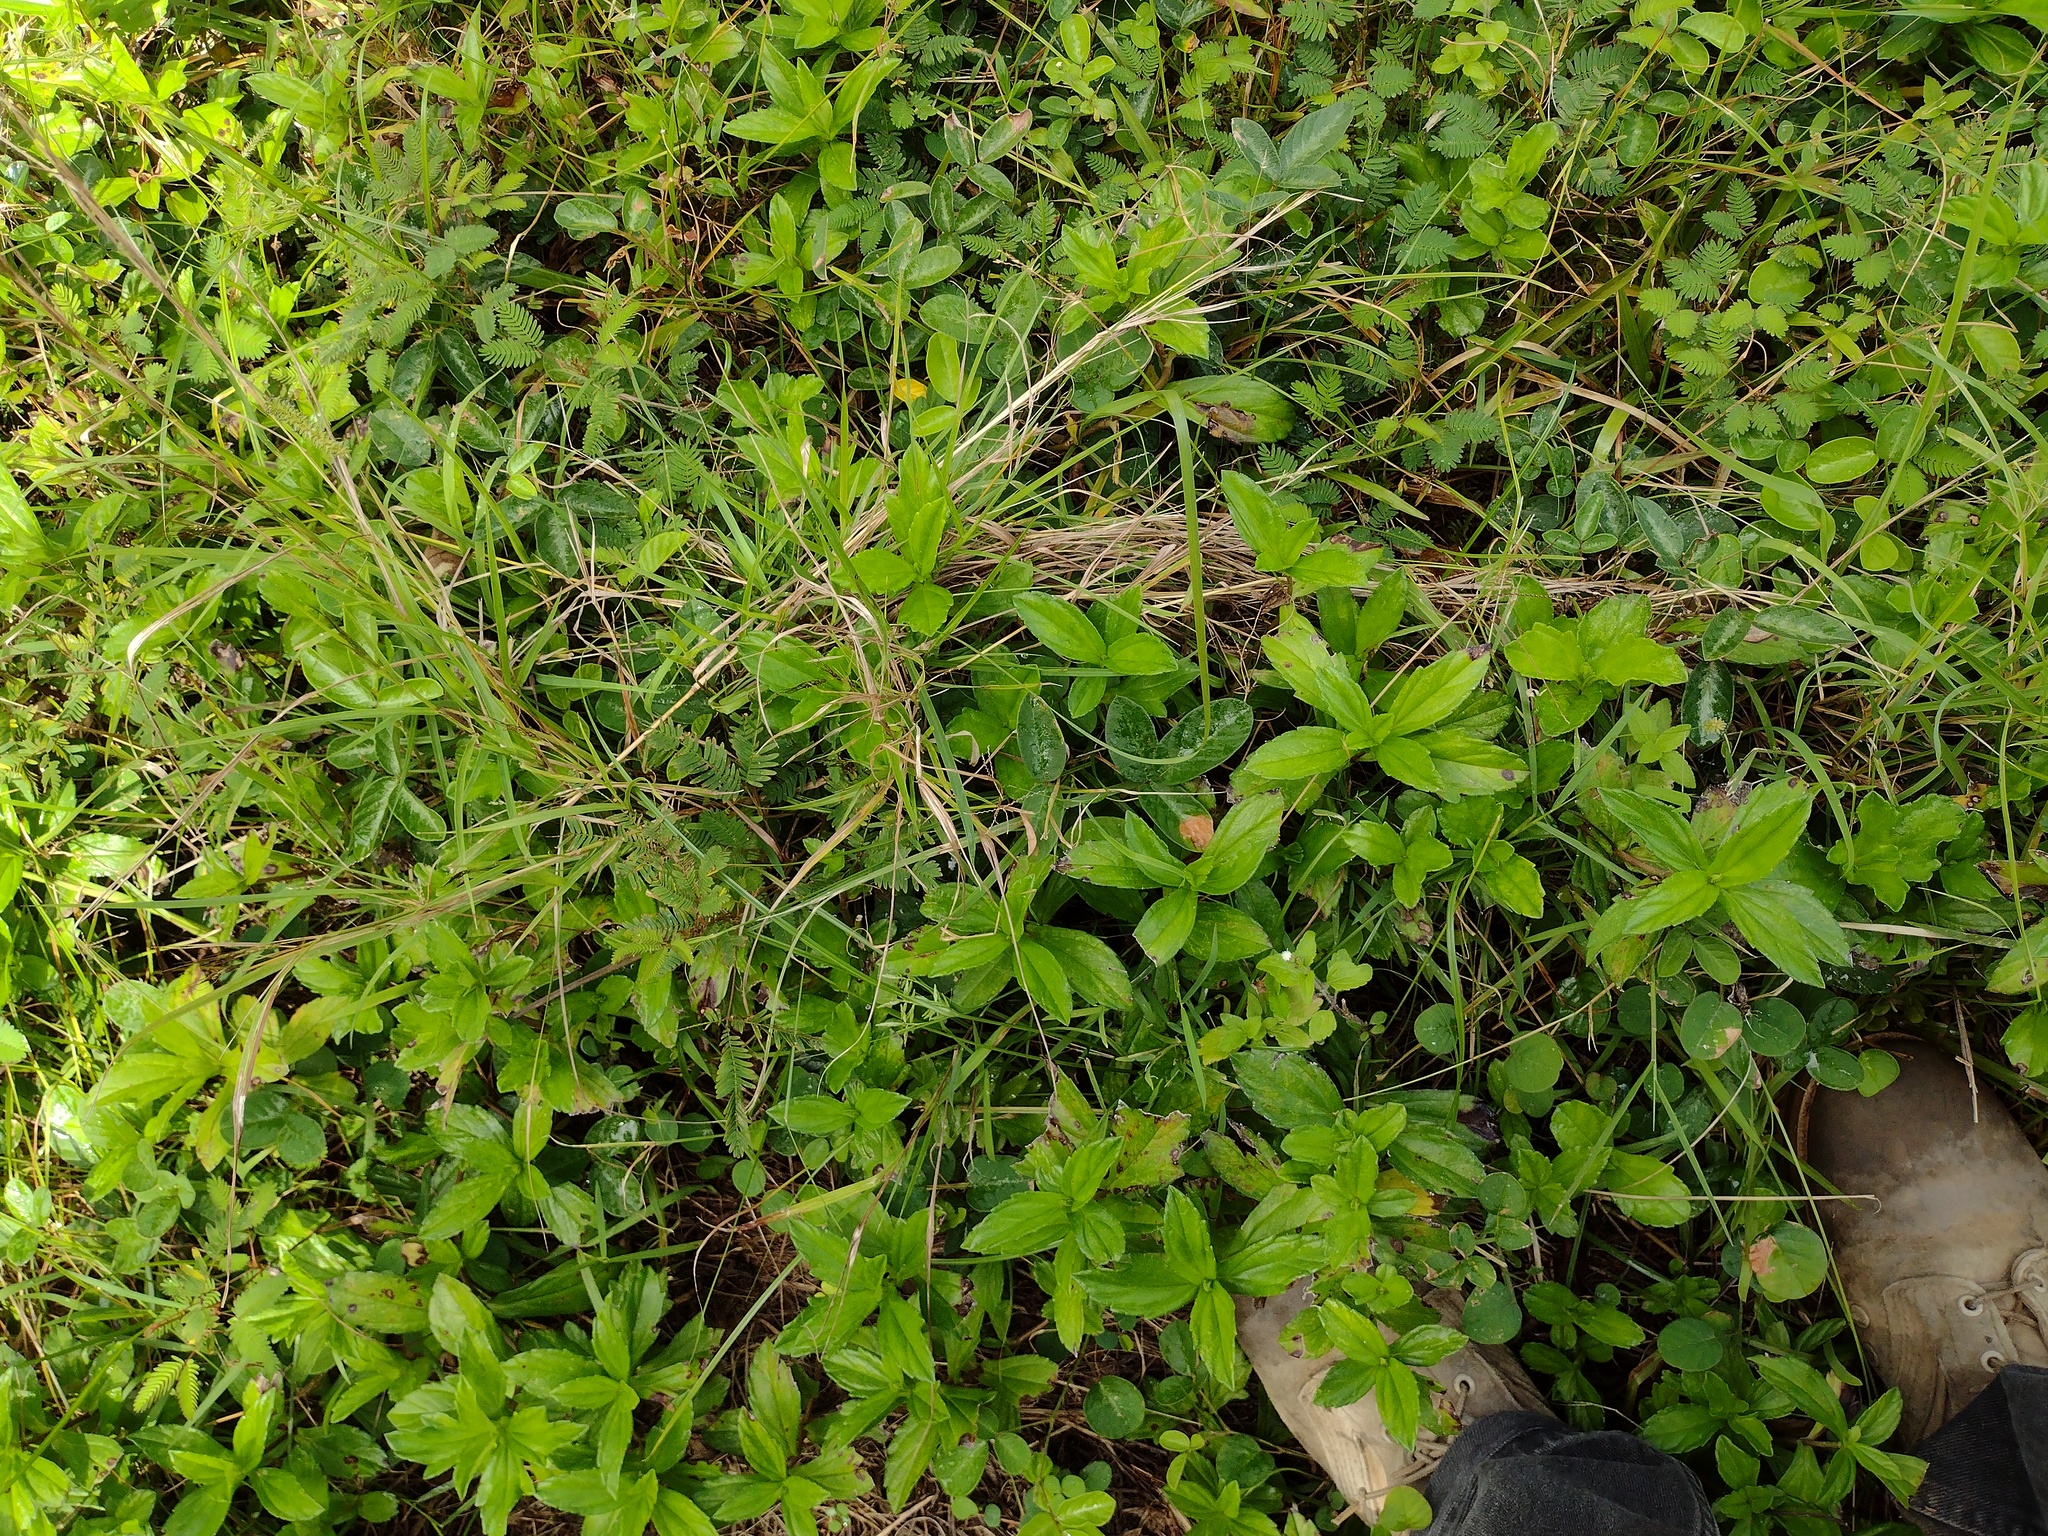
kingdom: Plantae
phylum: Tracheophyta
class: Magnoliopsida
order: Asterales
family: Asteraceae
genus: Sphagneticola
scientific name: Sphagneticola trilobata
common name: Bay biscayne creeping-oxeye
